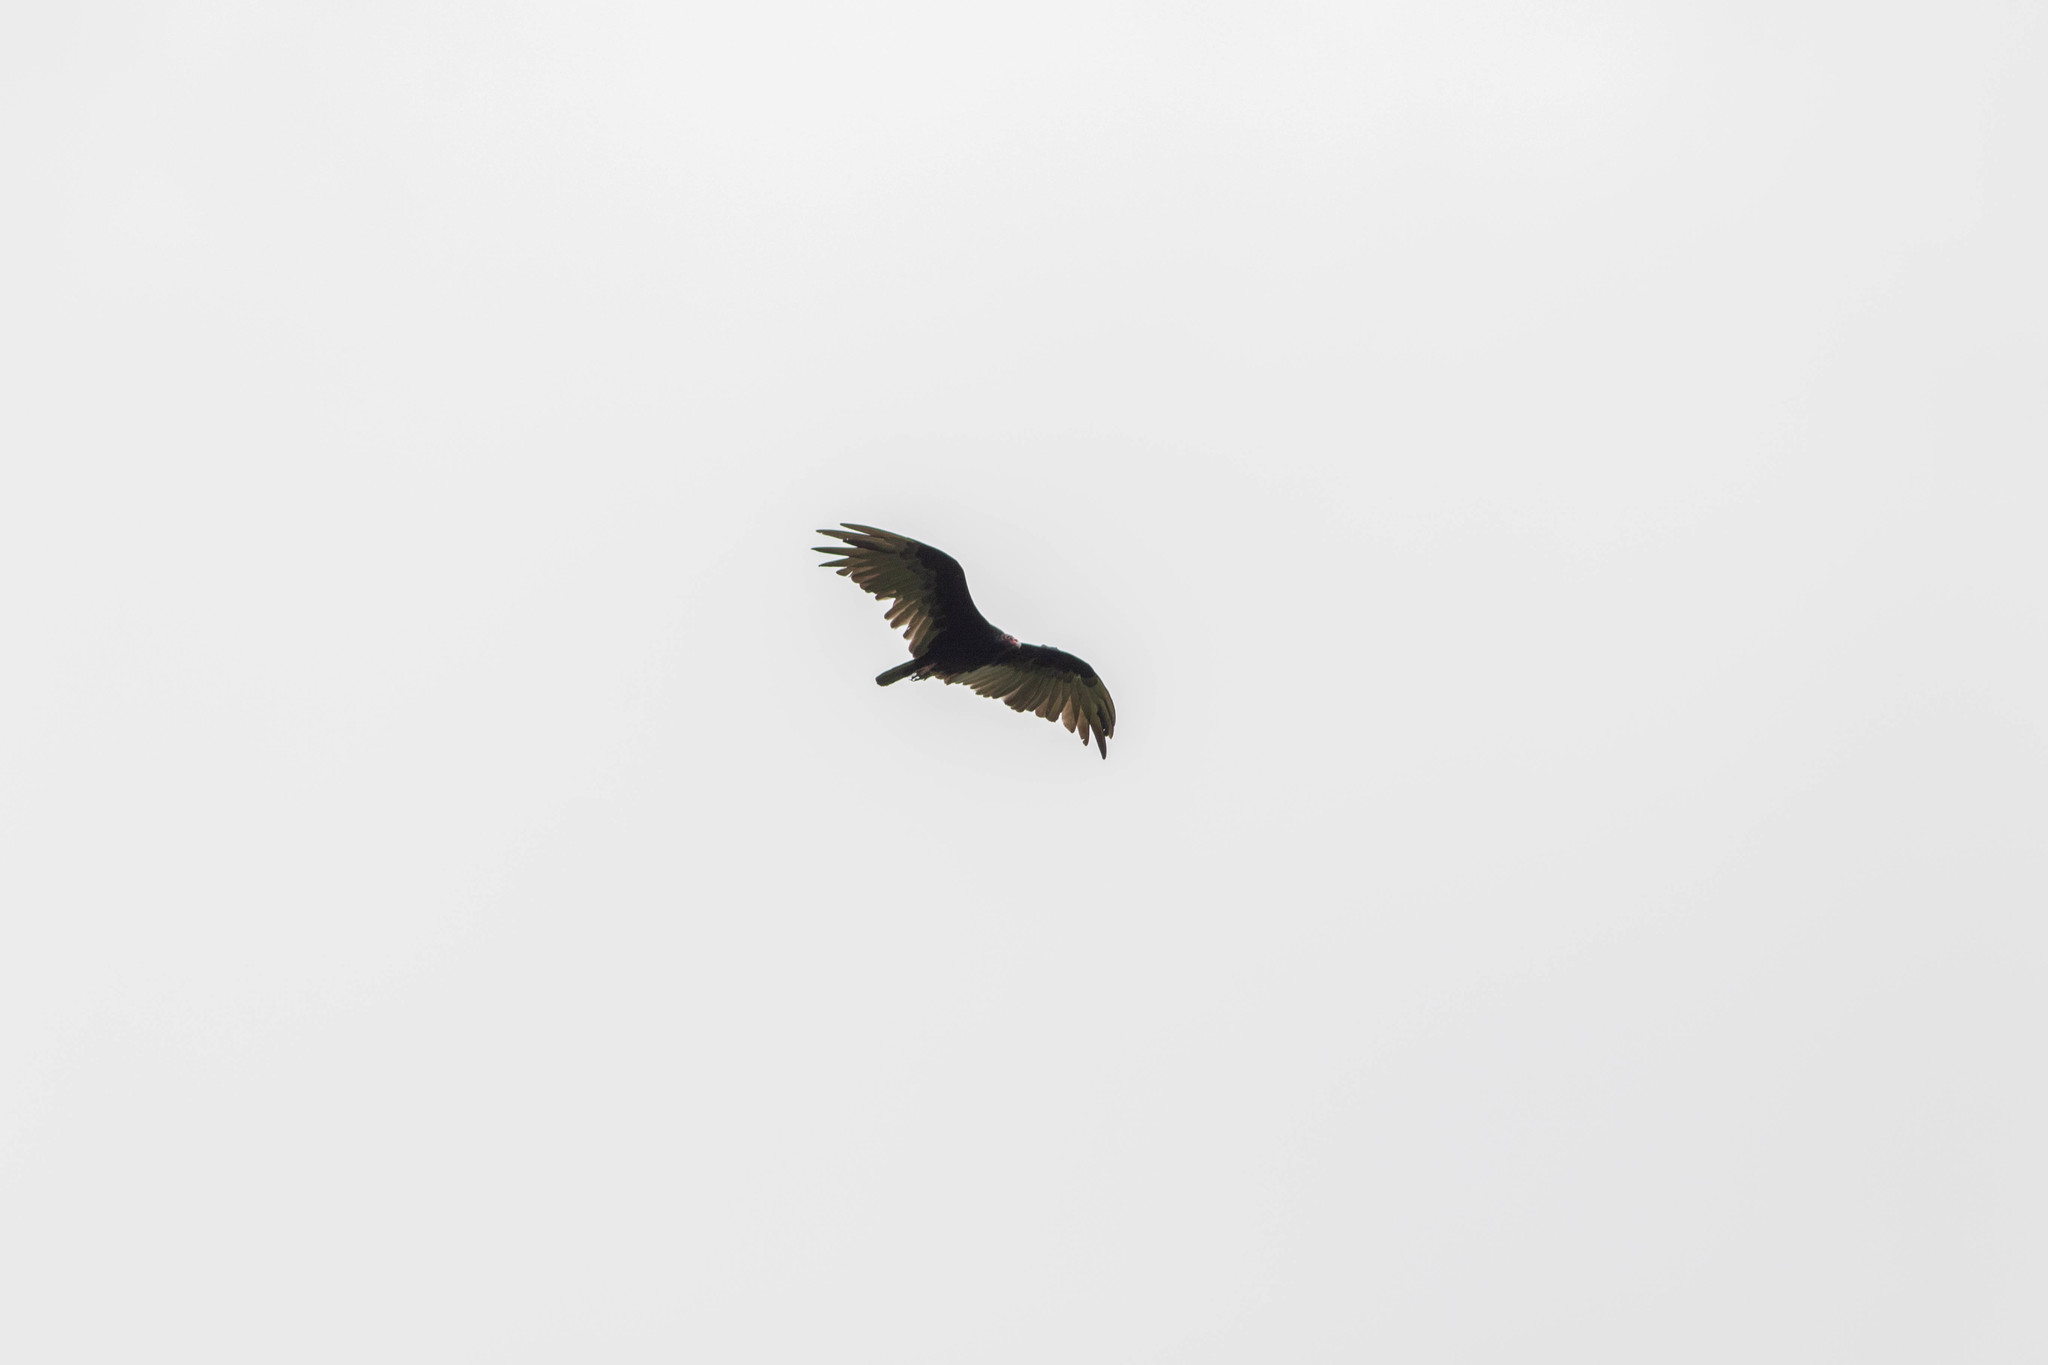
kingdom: Animalia
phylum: Chordata
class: Aves
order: Accipitriformes
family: Cathartidae
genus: Cathartes
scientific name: Cathartes aura
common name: Turkey vulture
